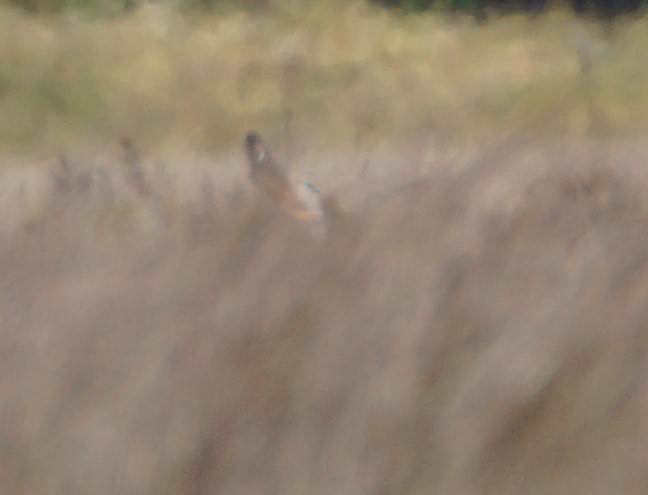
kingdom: Animalia
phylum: Chordata
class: Aves
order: Falconiformes
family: Falconidae
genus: Falco
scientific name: Falco cenchroides
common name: Nankeen kestrel
